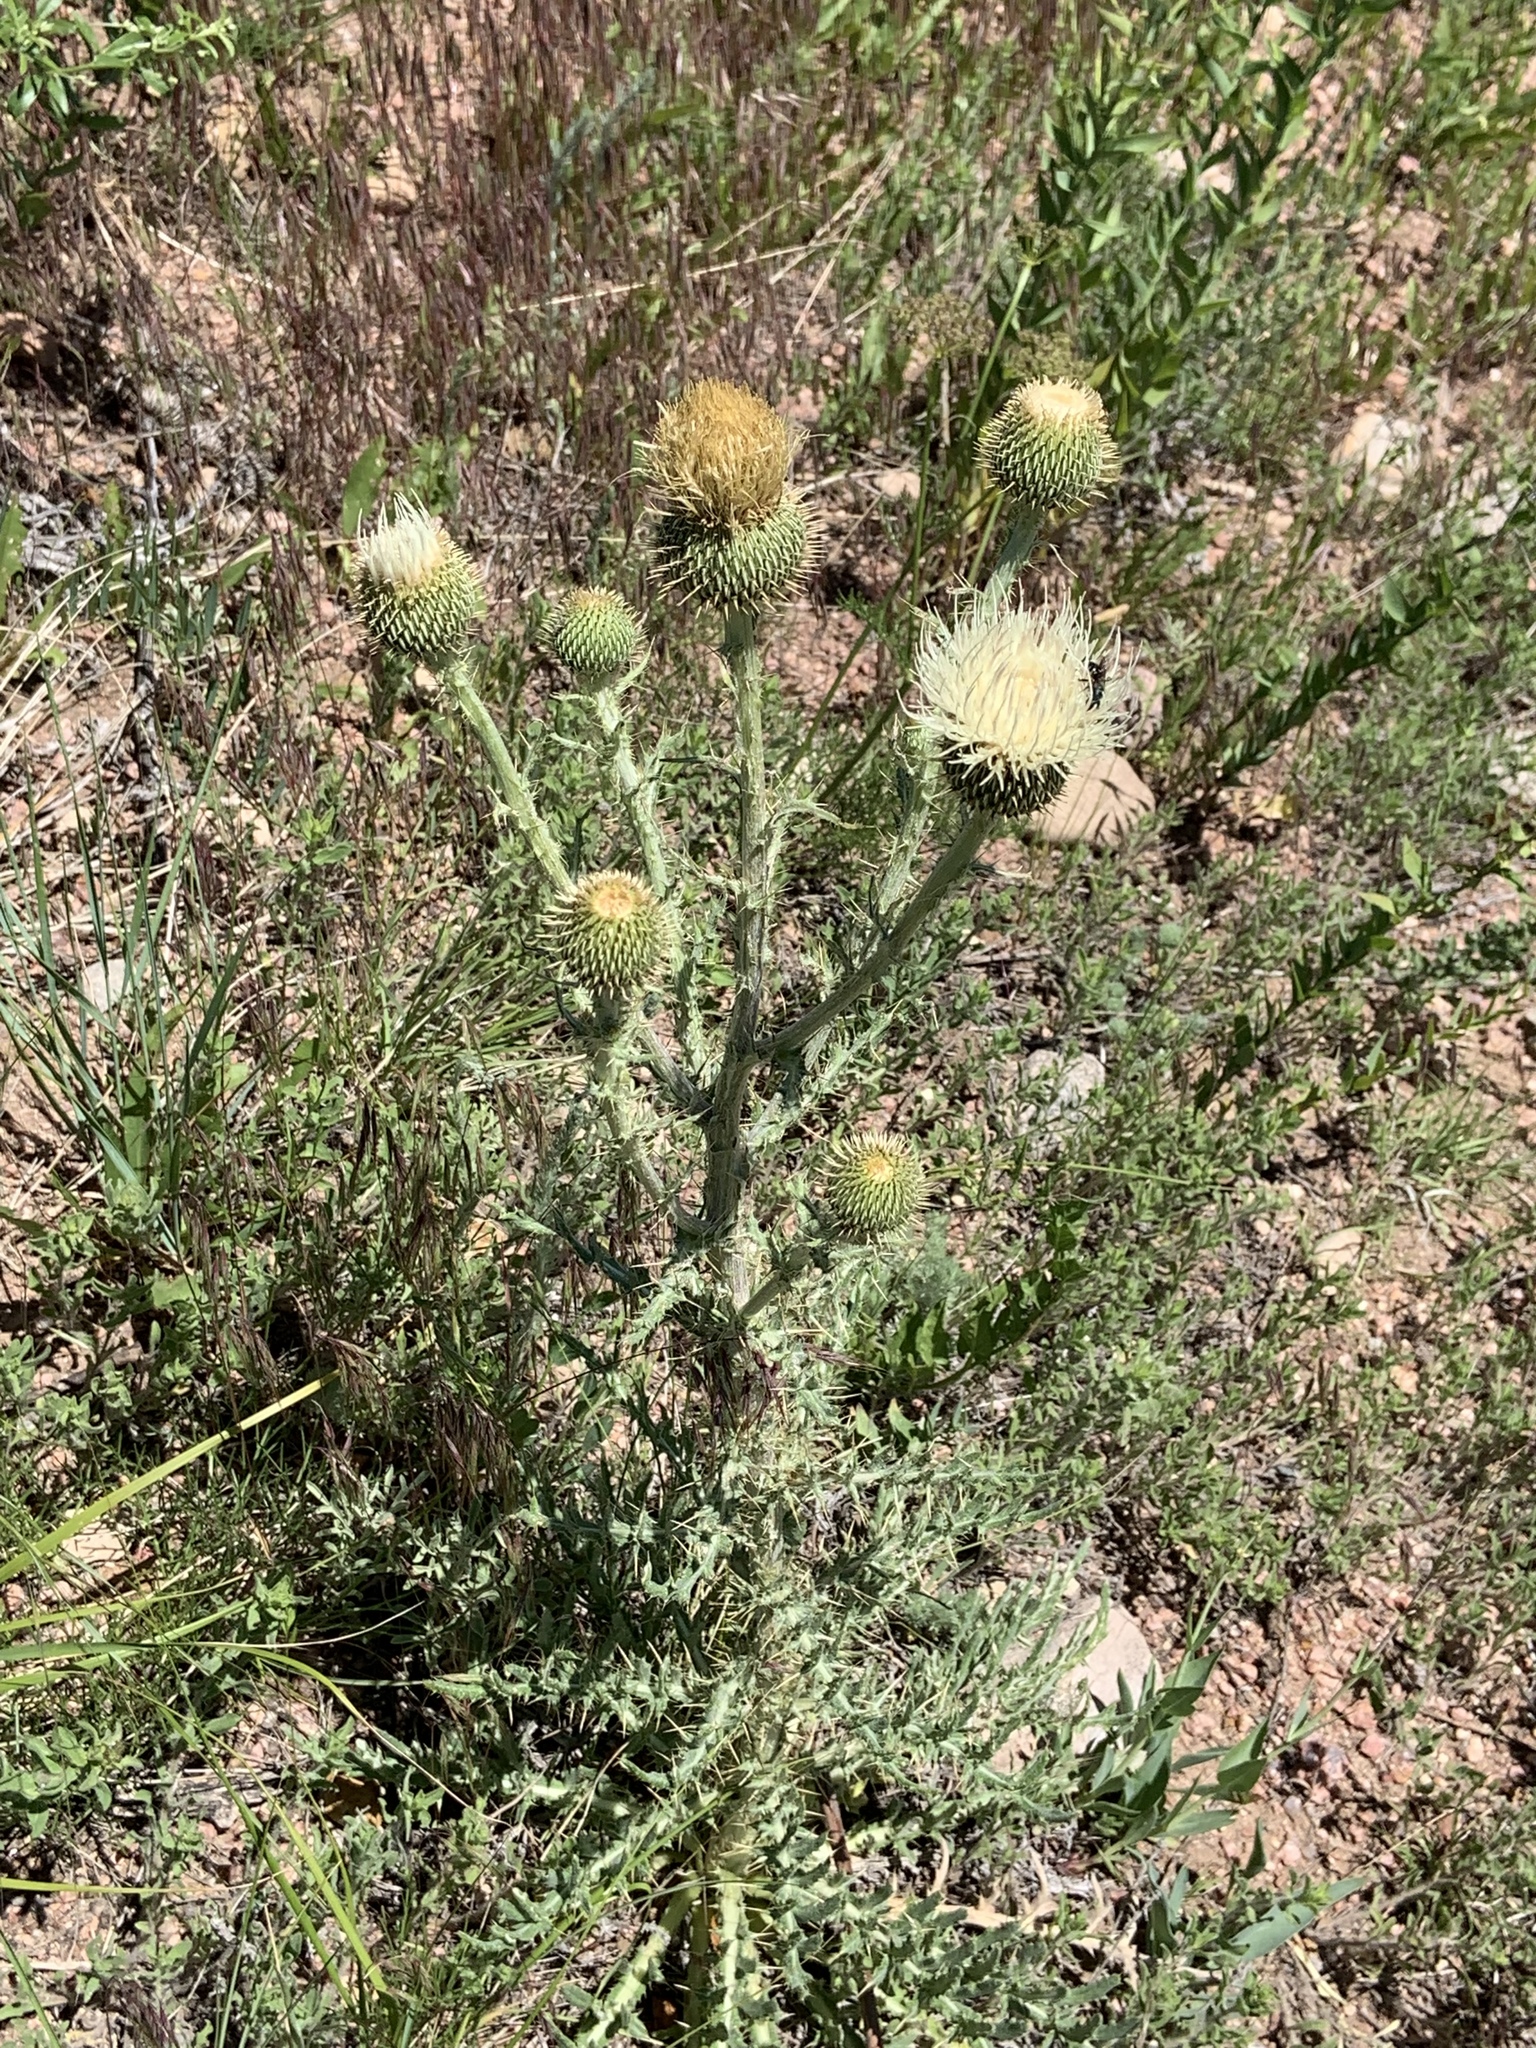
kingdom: Plantae
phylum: Tracheophyta
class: Magnoliopsida
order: Asterales
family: Asteraceae
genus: Cirsium
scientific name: Cirsium canescens
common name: Prairie thistle
